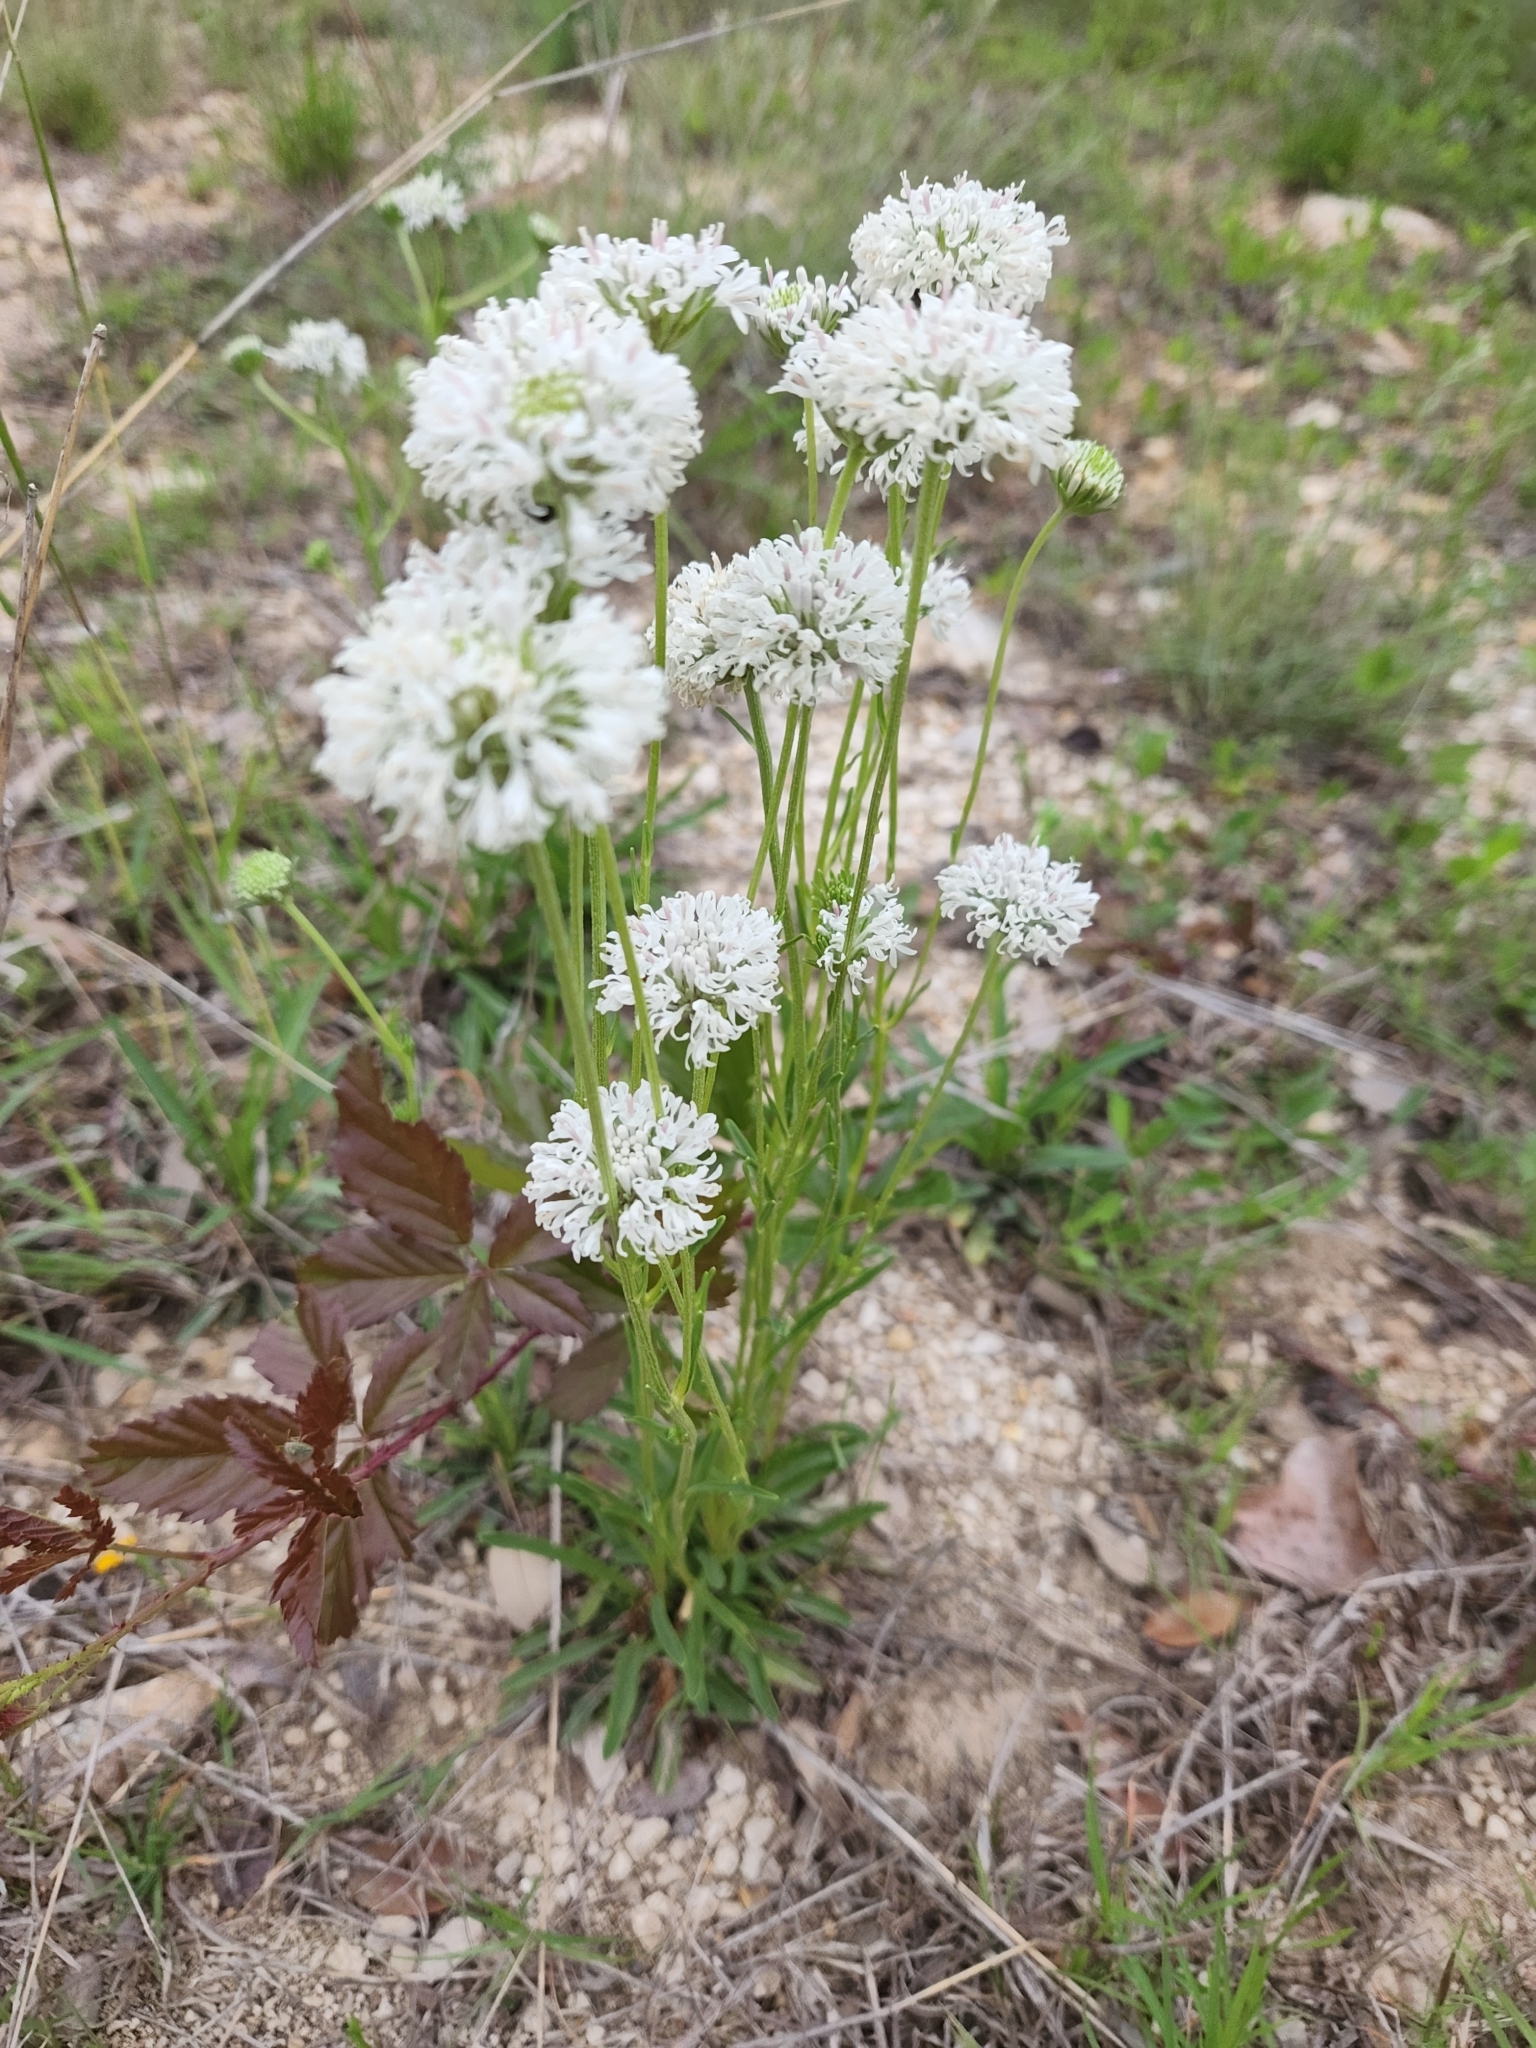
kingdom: Plantae
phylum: Tracheophyta
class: Magnoliopsida
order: Asterales
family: Asteraceae
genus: Marshallia
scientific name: Marshallia caespitosa
